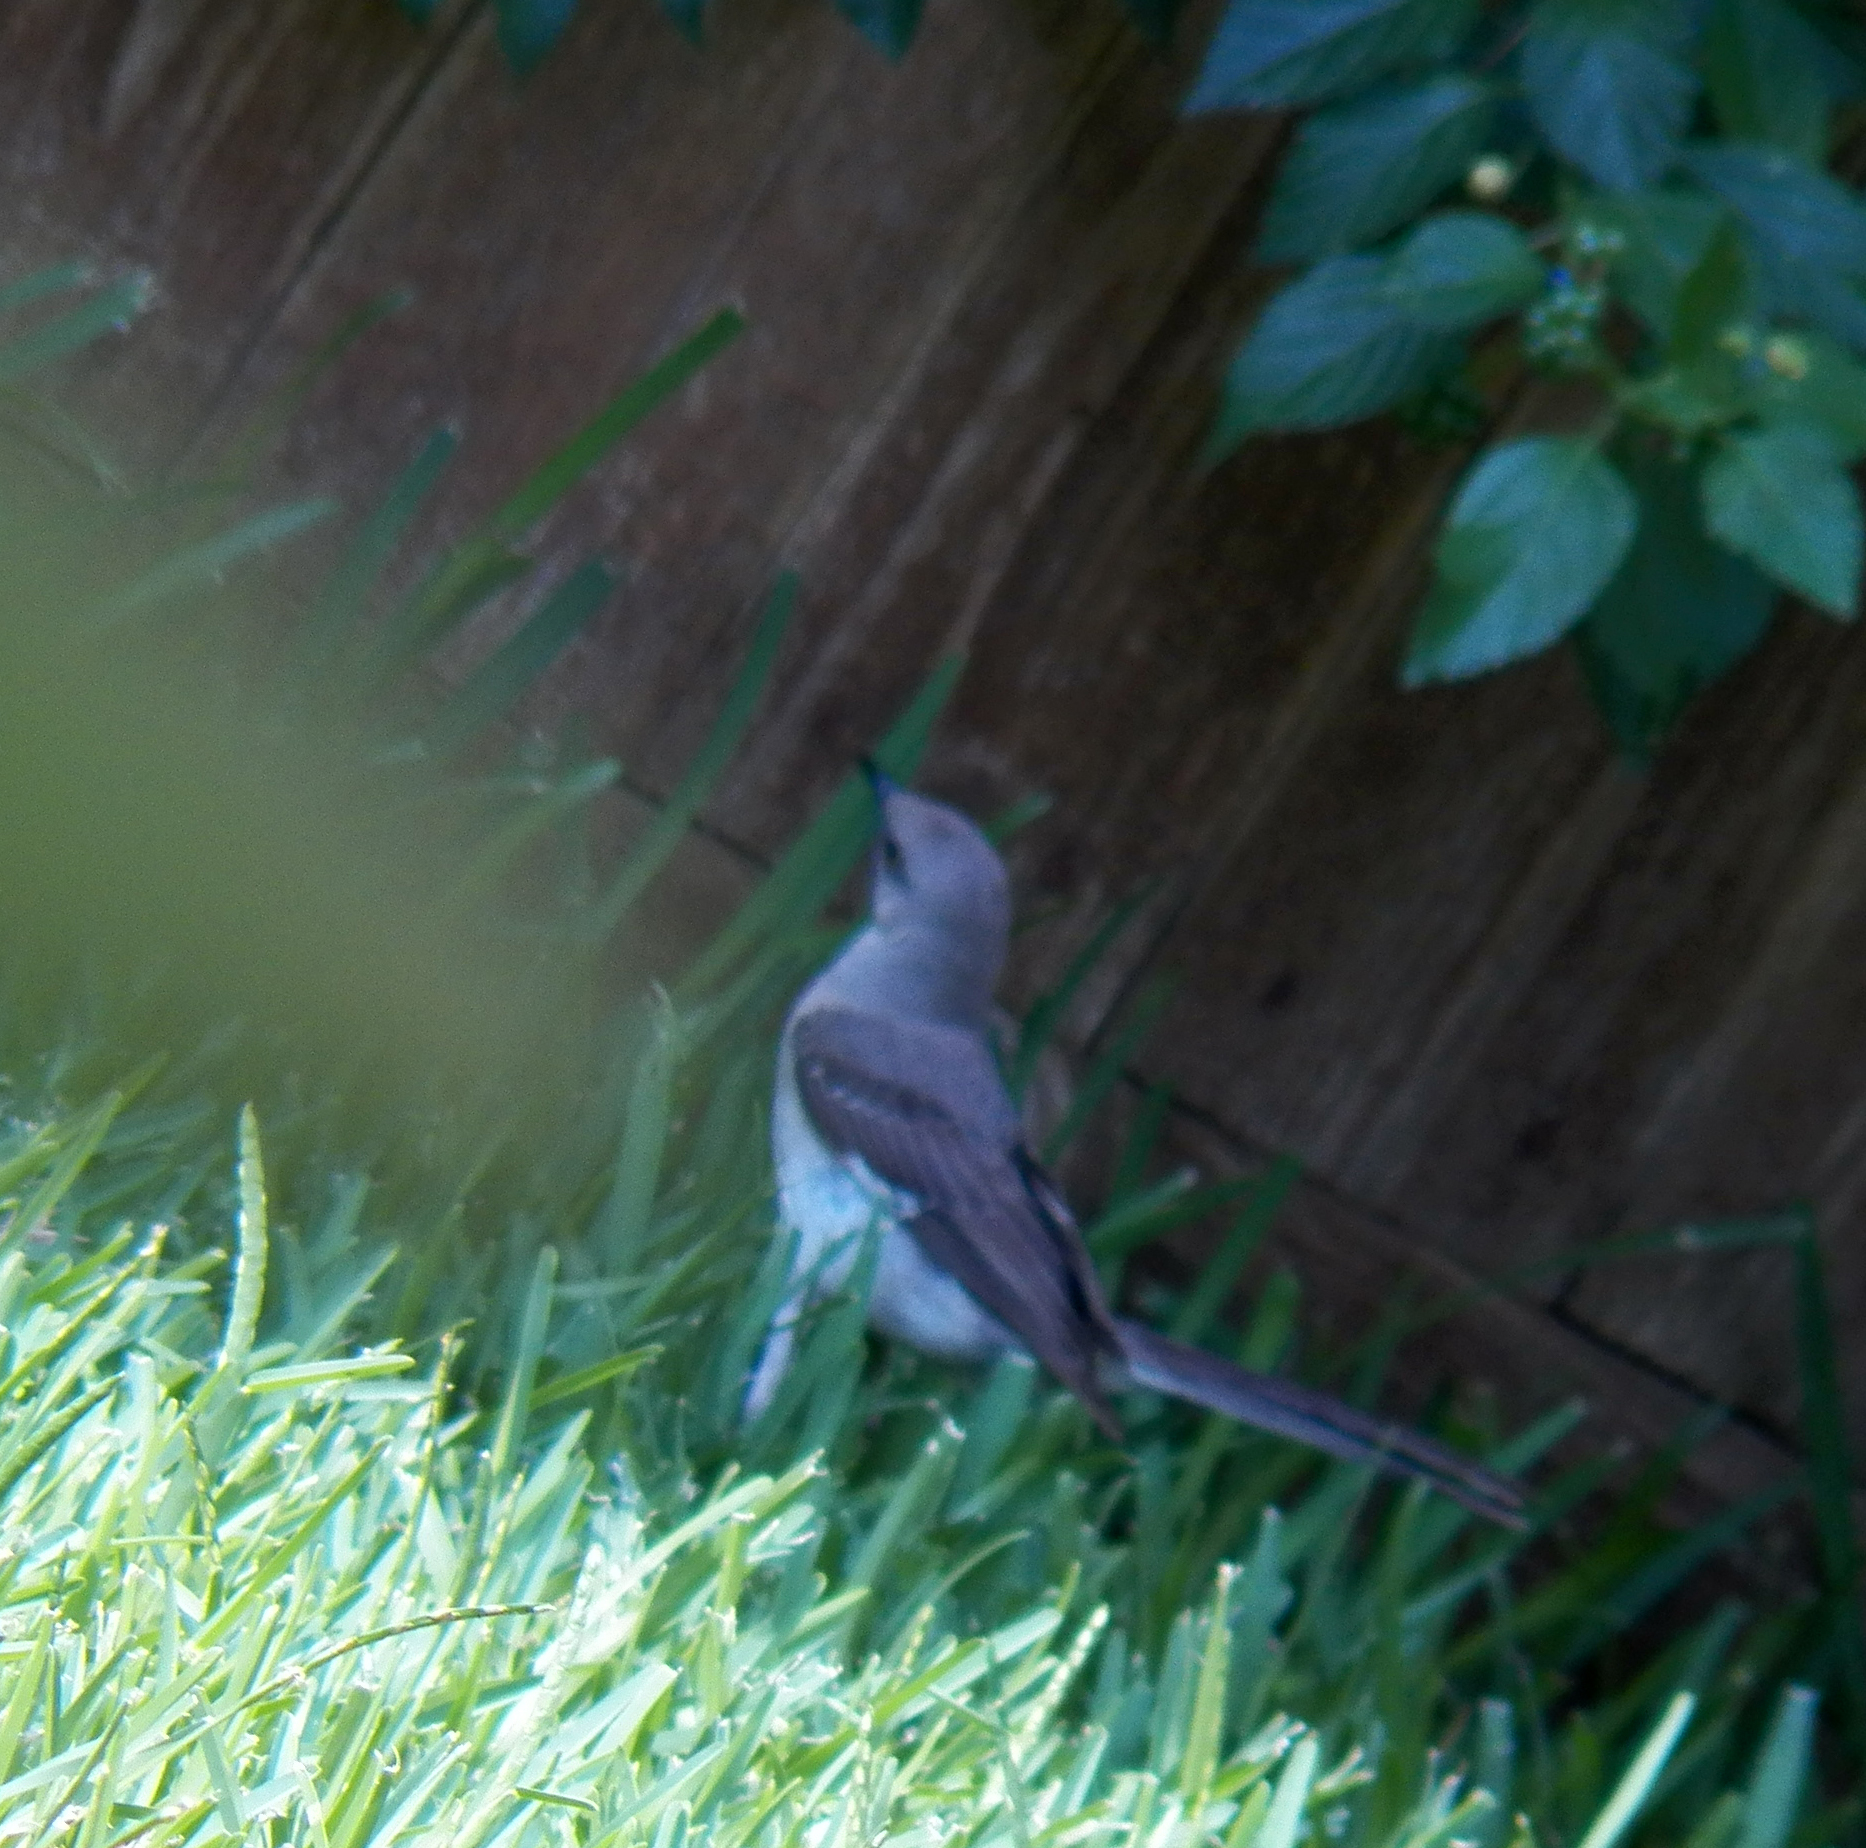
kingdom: Animalia
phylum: Chordata
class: Aves
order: Passeriformes
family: Mimidae
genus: Mimus
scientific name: Mimus polyglottos
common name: Northern mockingbird
